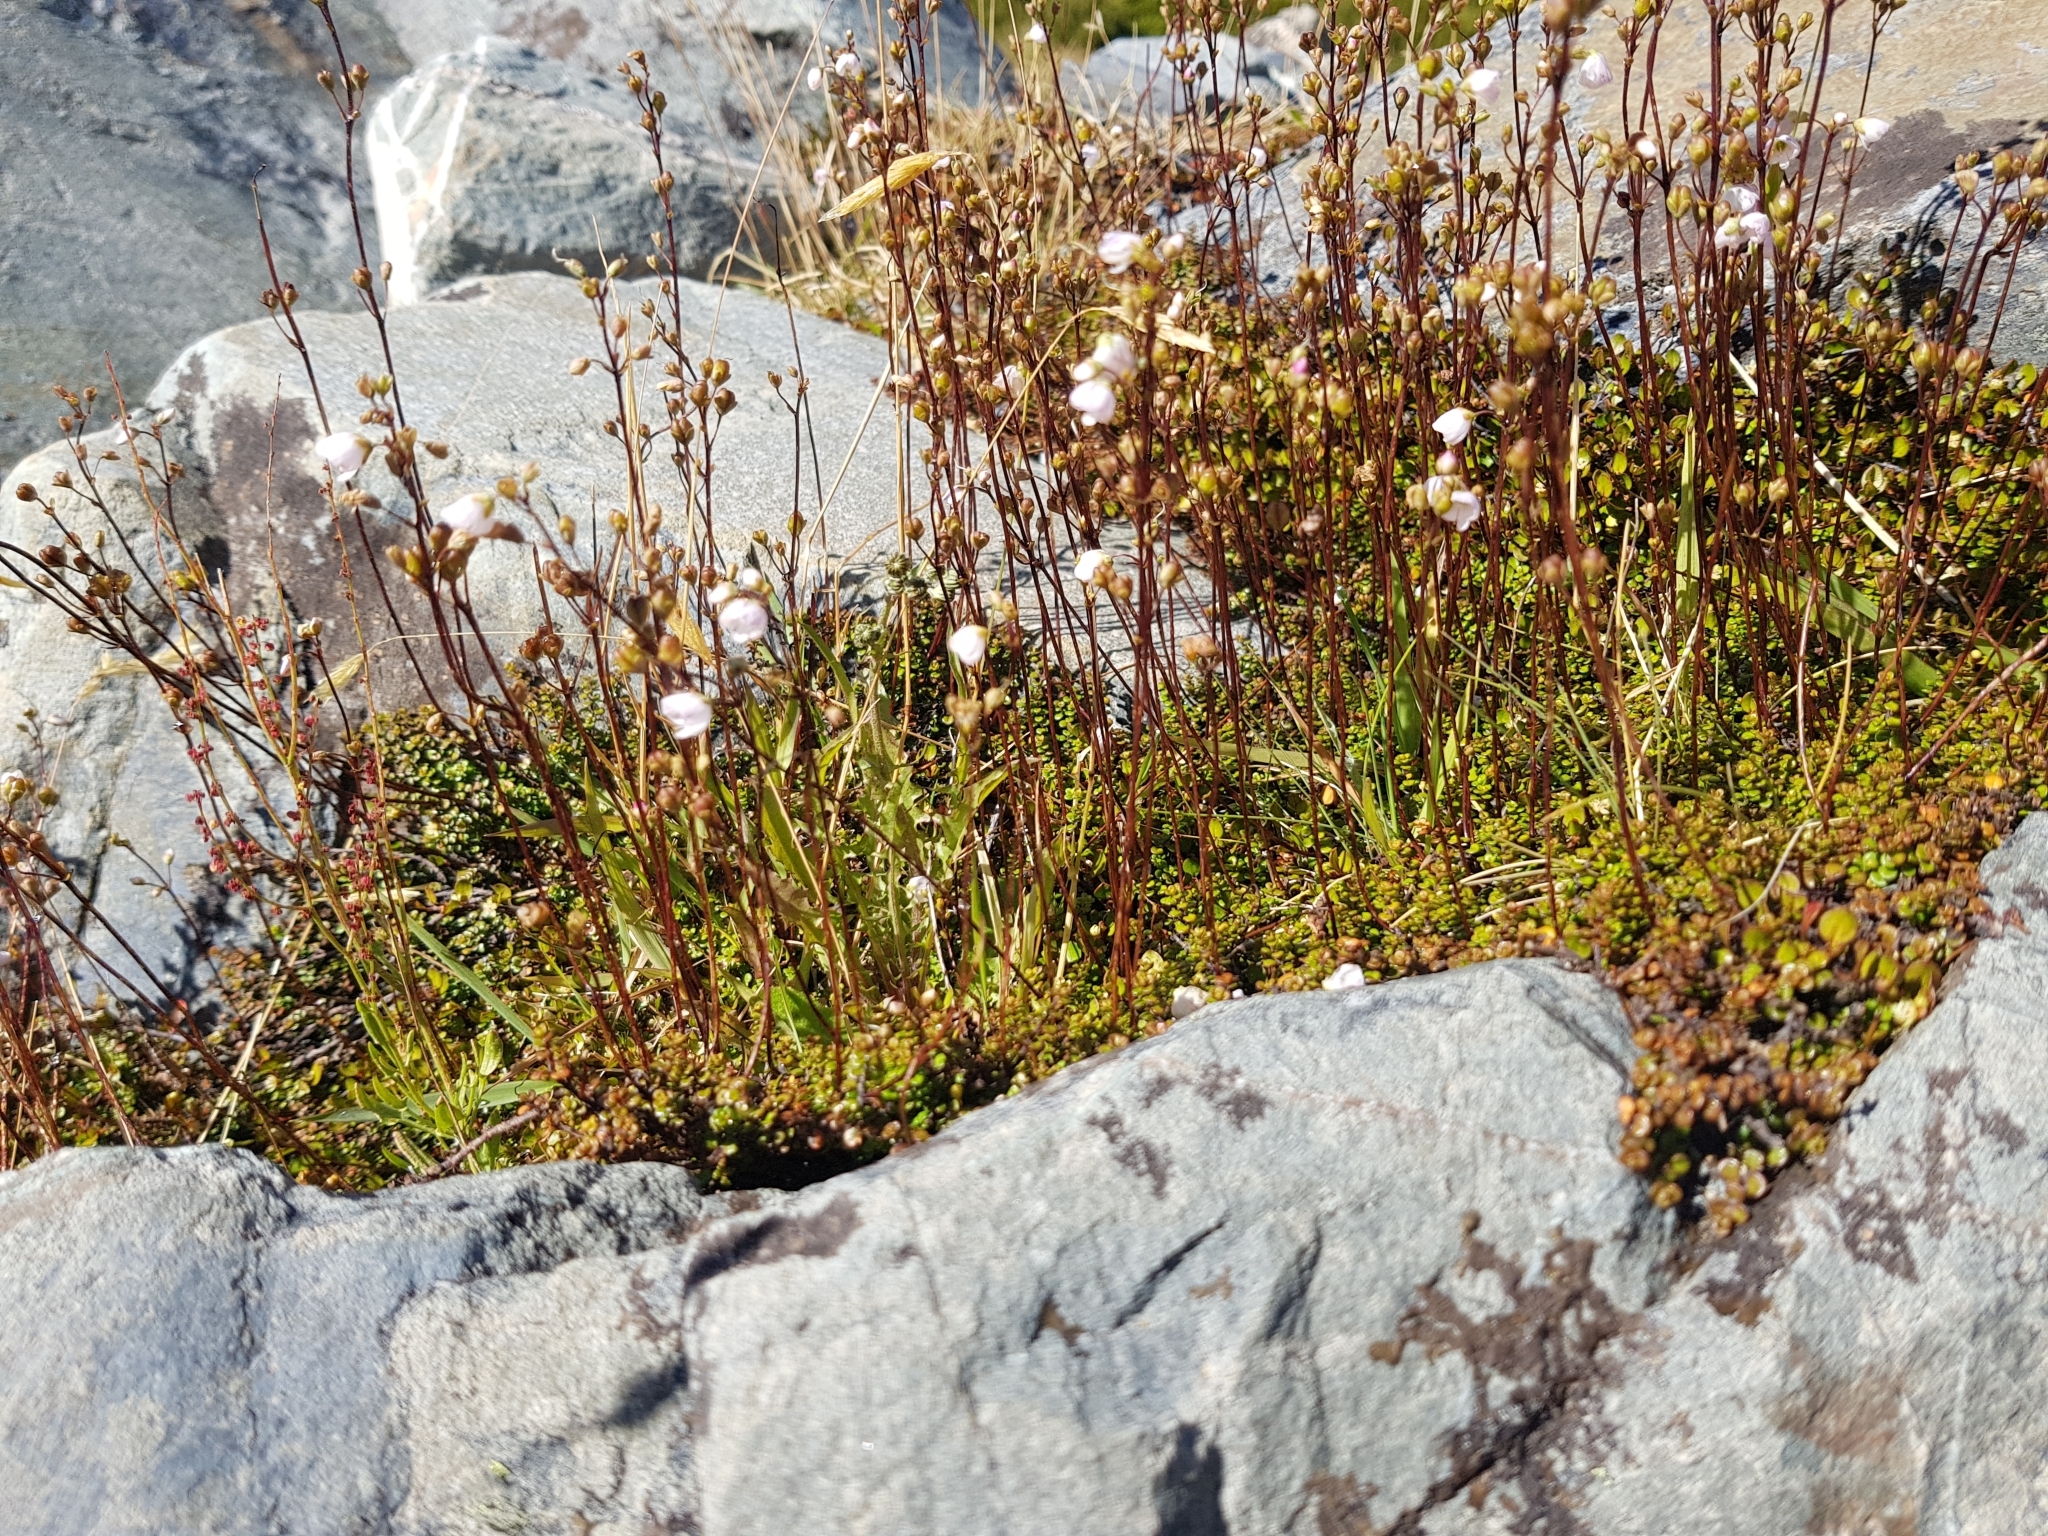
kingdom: Plantae
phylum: Tracheophyta
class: Magnoliopsida
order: Lamiales
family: Plantaginaceae
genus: Veronica
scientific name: Veronica decora
